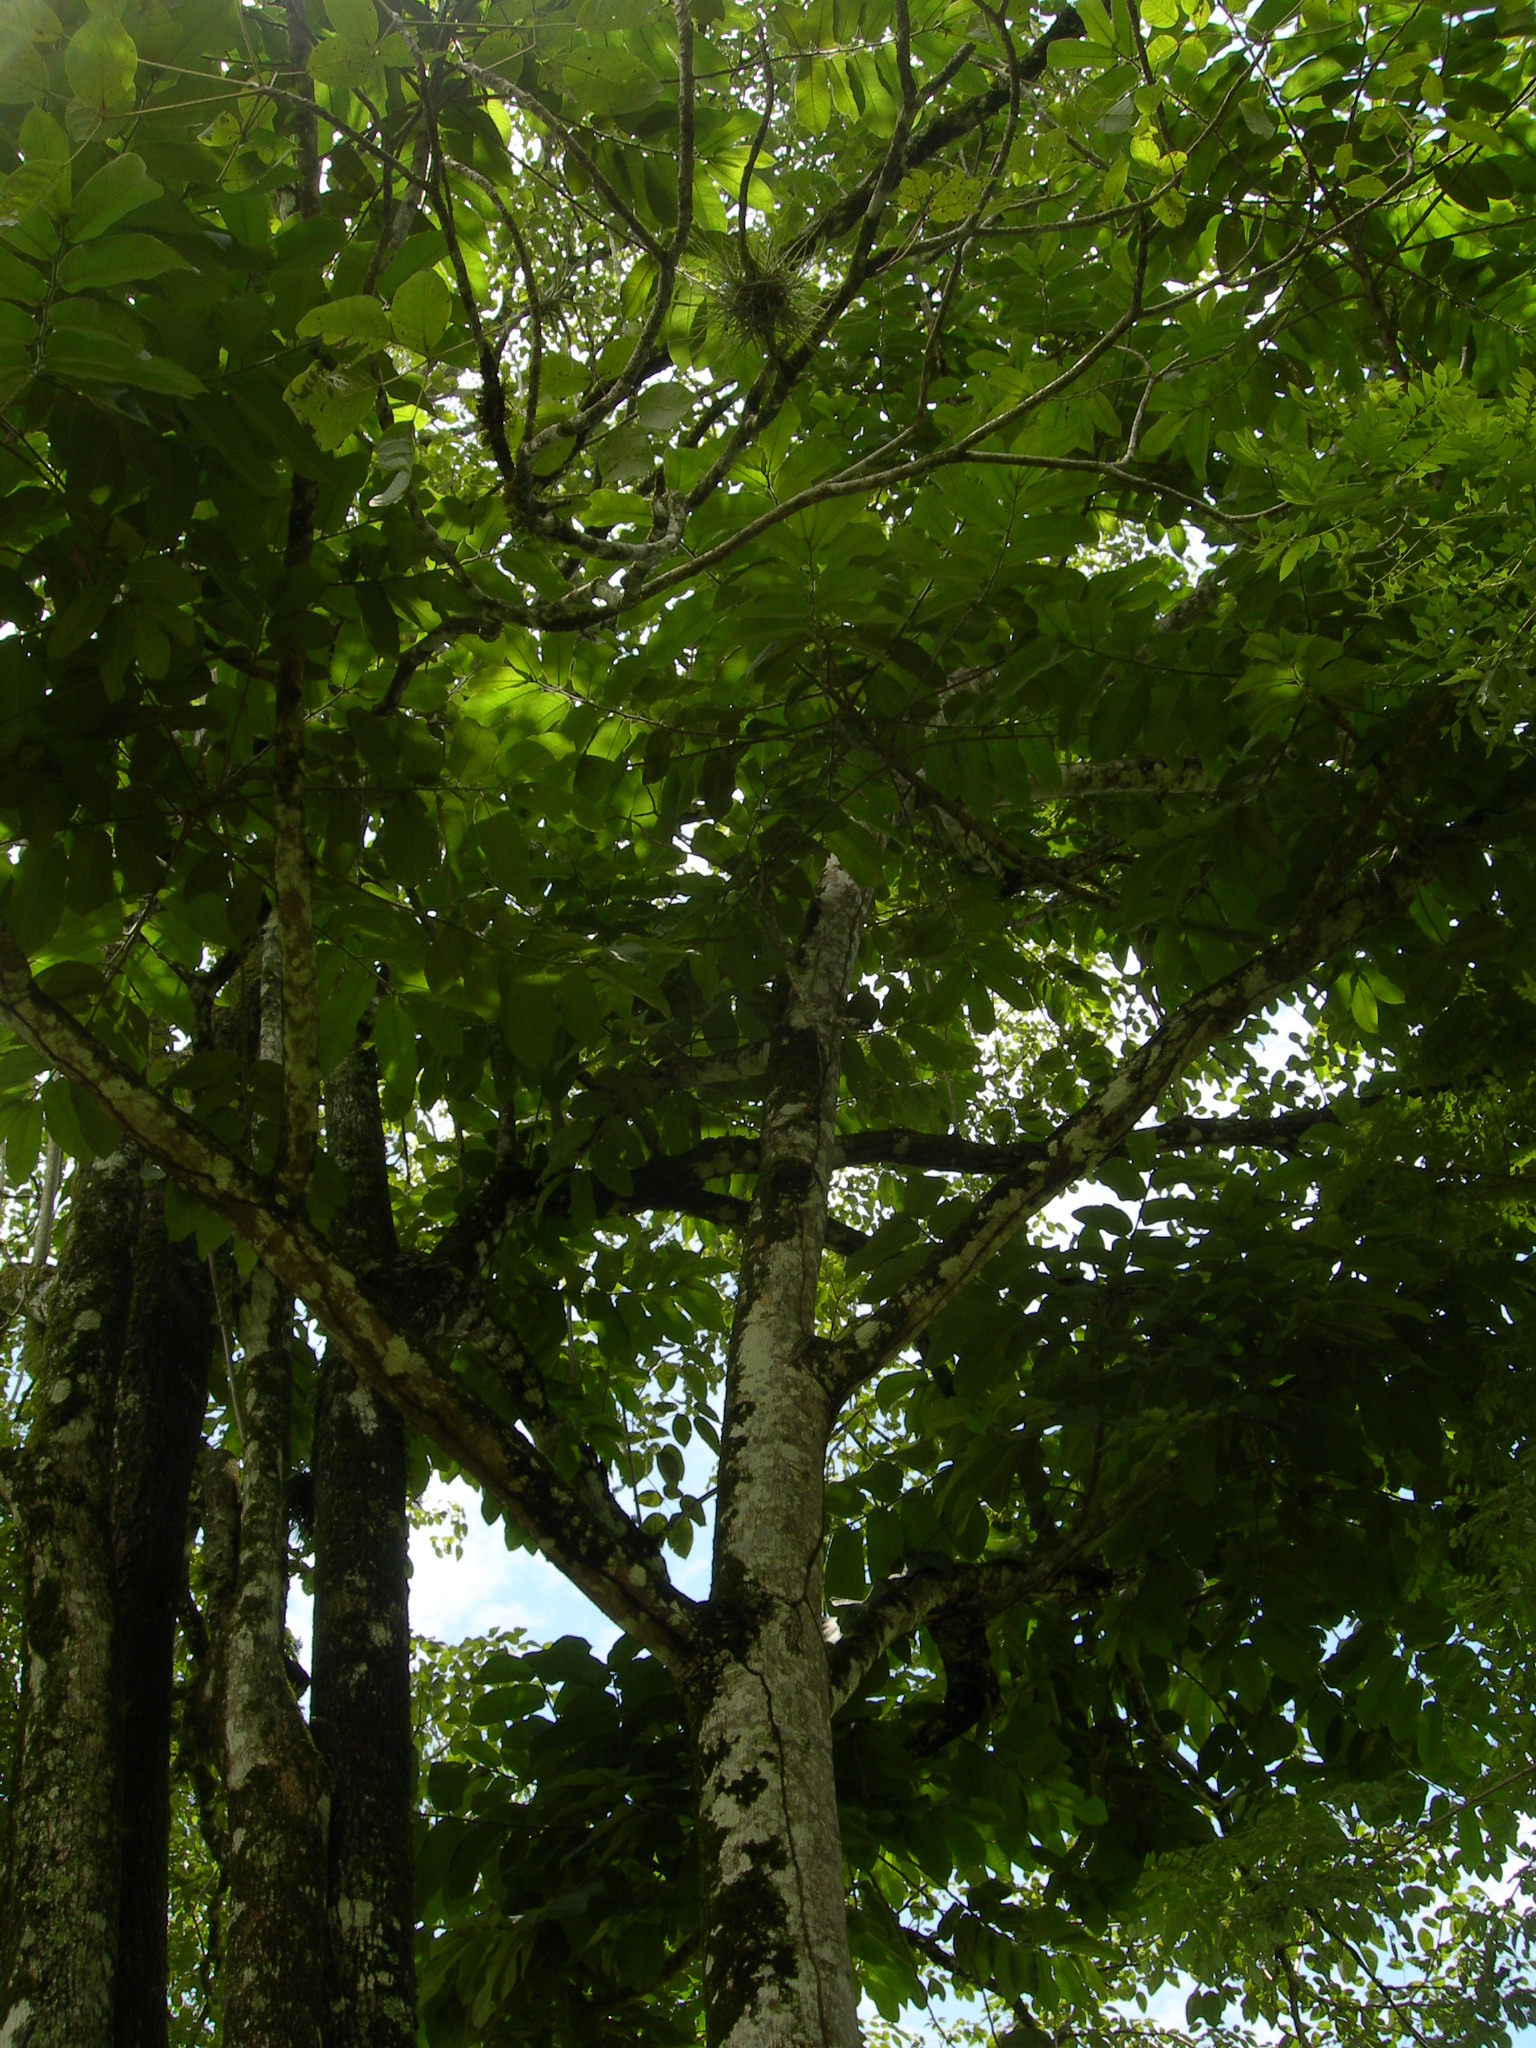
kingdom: Plantae
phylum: Tracheophyta
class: Magnoliopsida
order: Malvales
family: Malvaceae
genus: Guazuma
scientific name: Guazuma ulmifolia
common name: Bastard-cedar
